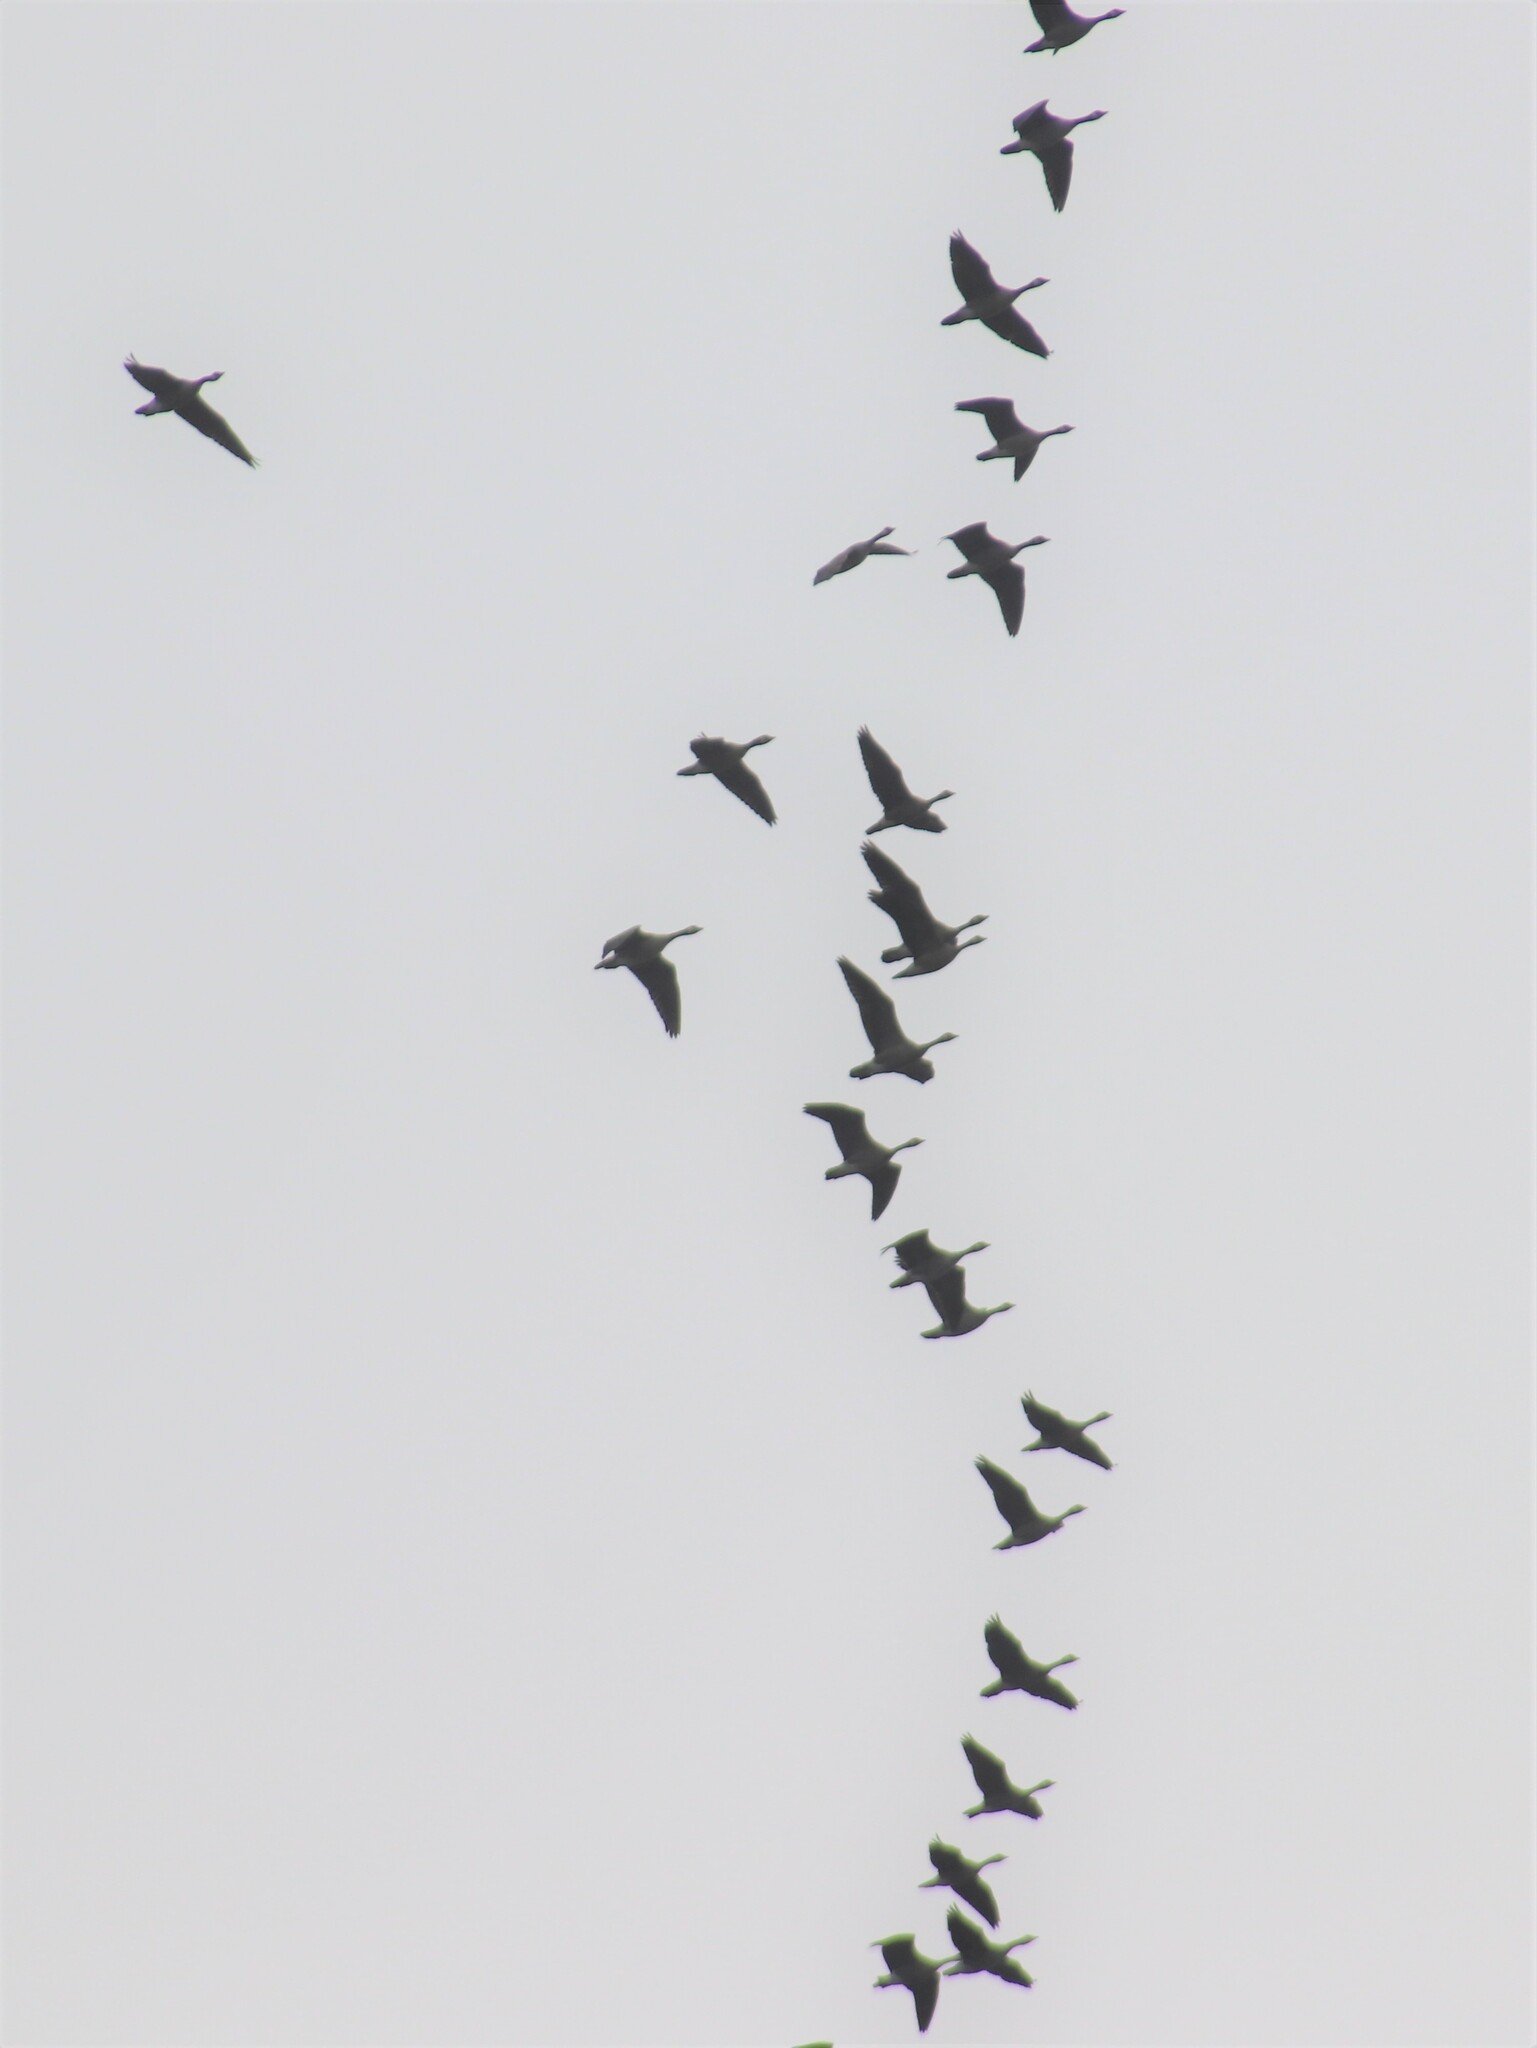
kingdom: Animalia
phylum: Chordata
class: Aves
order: Anseriformes
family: Anatidae
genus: Branta
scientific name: Branta canadensis
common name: Canada goose
